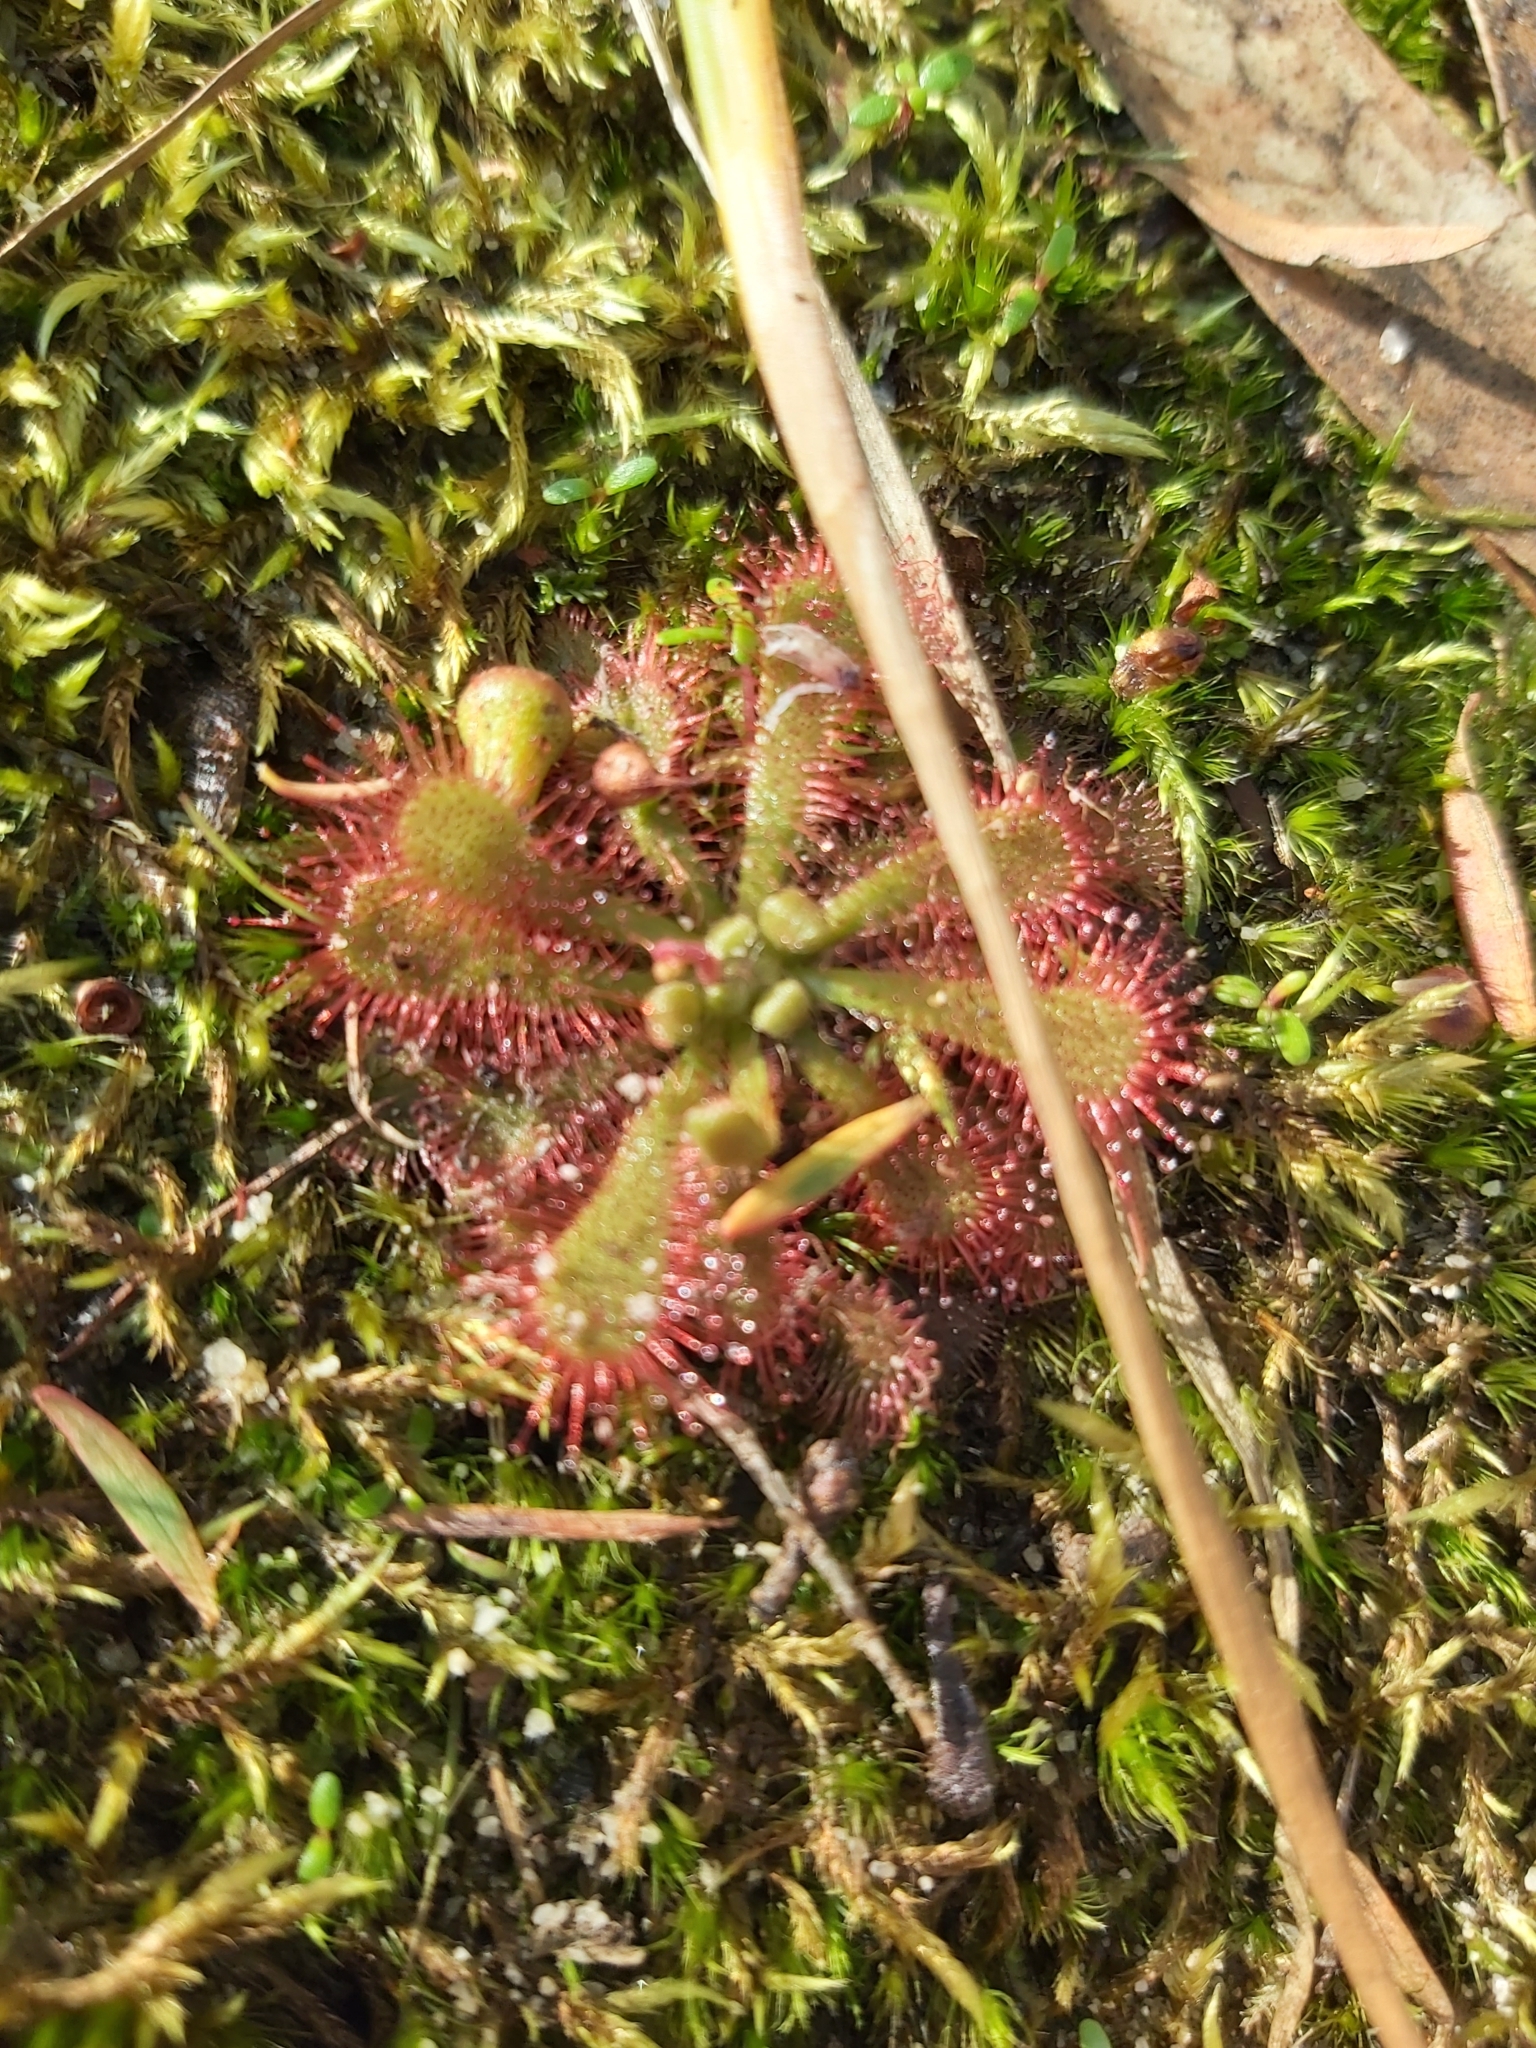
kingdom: Plantae
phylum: Tracheophyta
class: Magnoliopsida
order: Caryophyllales
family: Droseraceae
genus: Drosera
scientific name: Drosera spatulata
